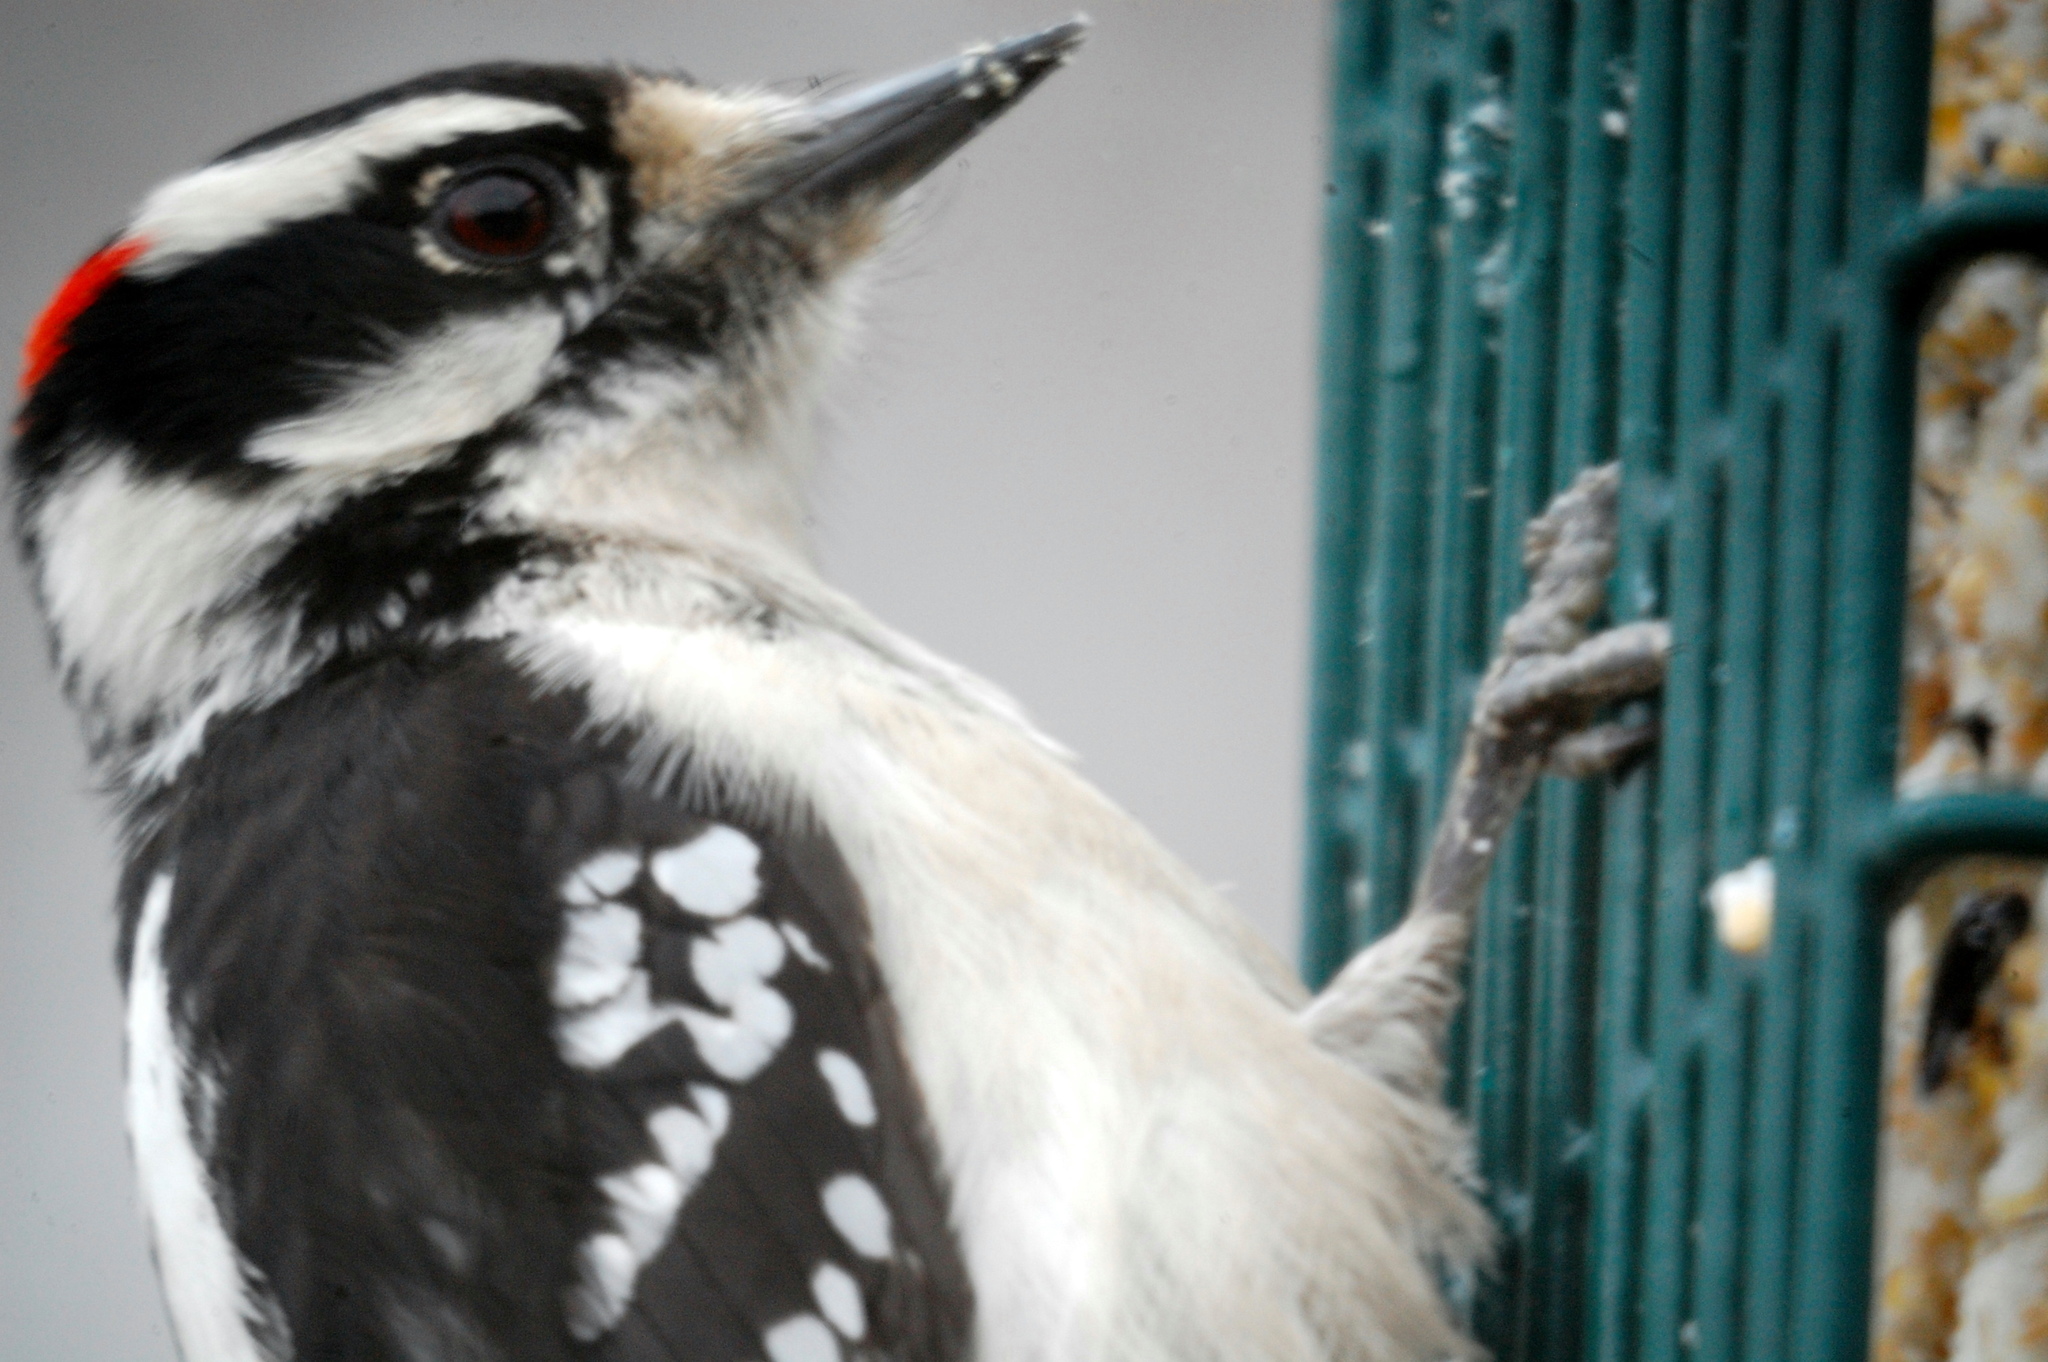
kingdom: Animalia
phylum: Chordata
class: Aves
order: Piciformes
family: Picidae
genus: Dryobates
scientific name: Dryobates pubescens
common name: Downy woodpecker
